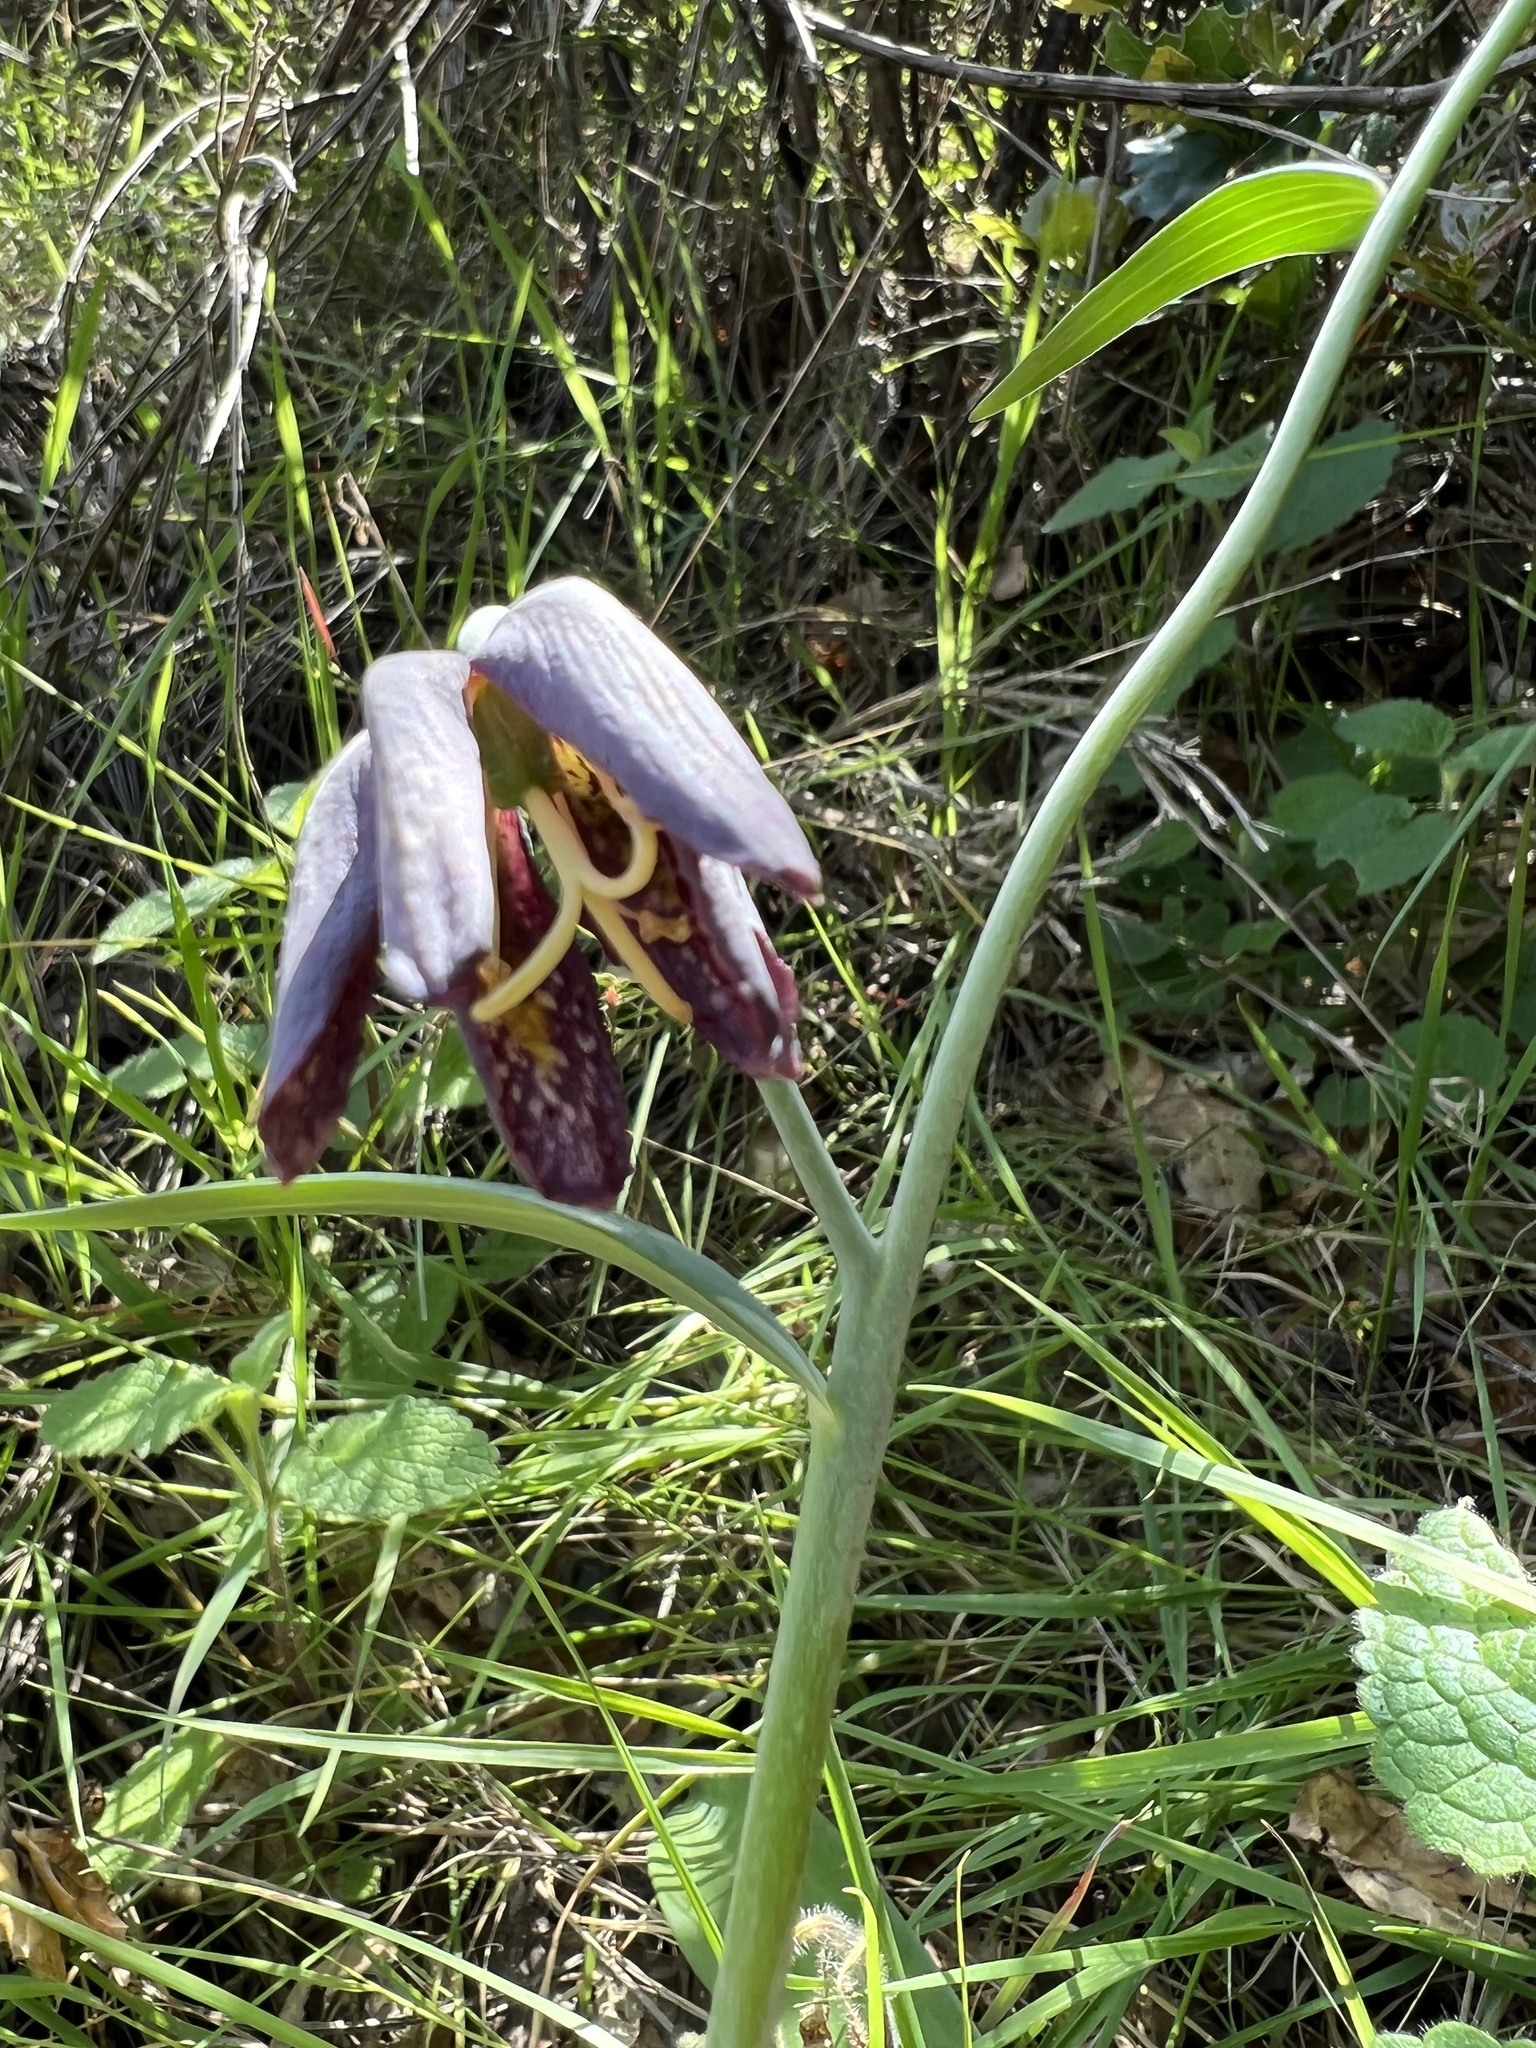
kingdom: Plantae
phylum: Tracheophyta
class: Liliopsida
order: Liliales
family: Liliaceae
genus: Fritillaria
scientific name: Fritillaria affinis
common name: Ojai fritillary
